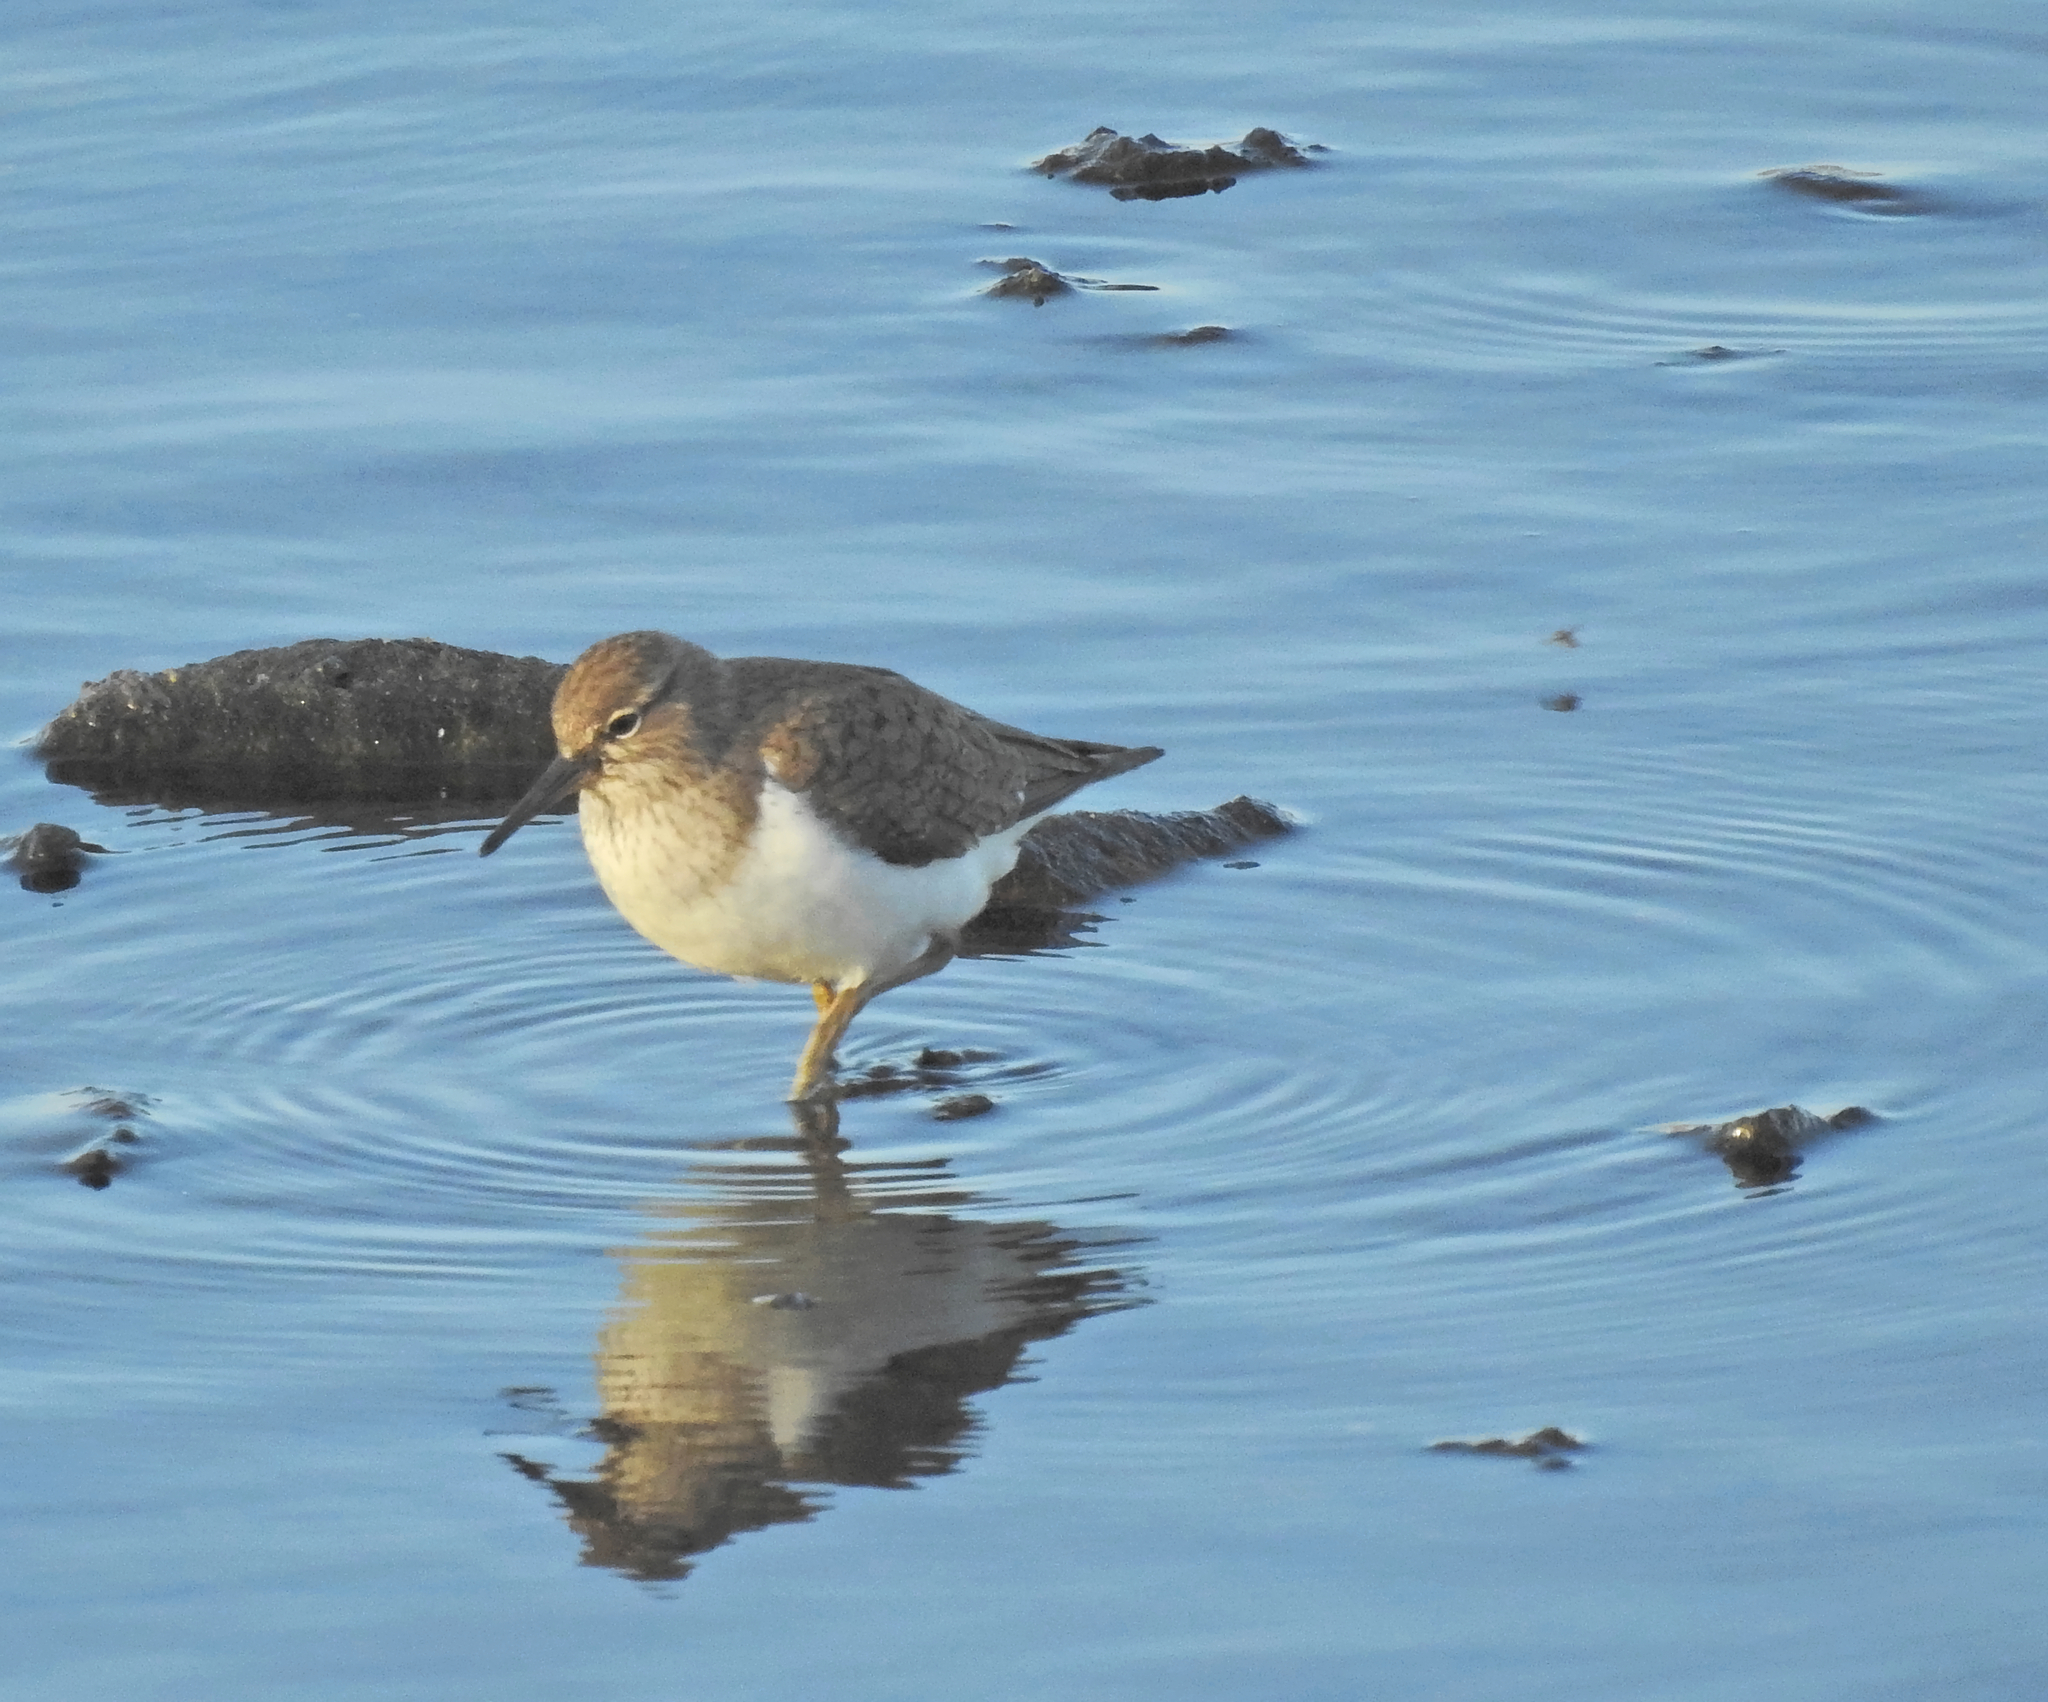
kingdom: Animalia
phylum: Chordata
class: Aves
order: Charadriiformes
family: Scolopacidae
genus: Actitis
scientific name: Actitis hypoleucos
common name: Common sandpiper
